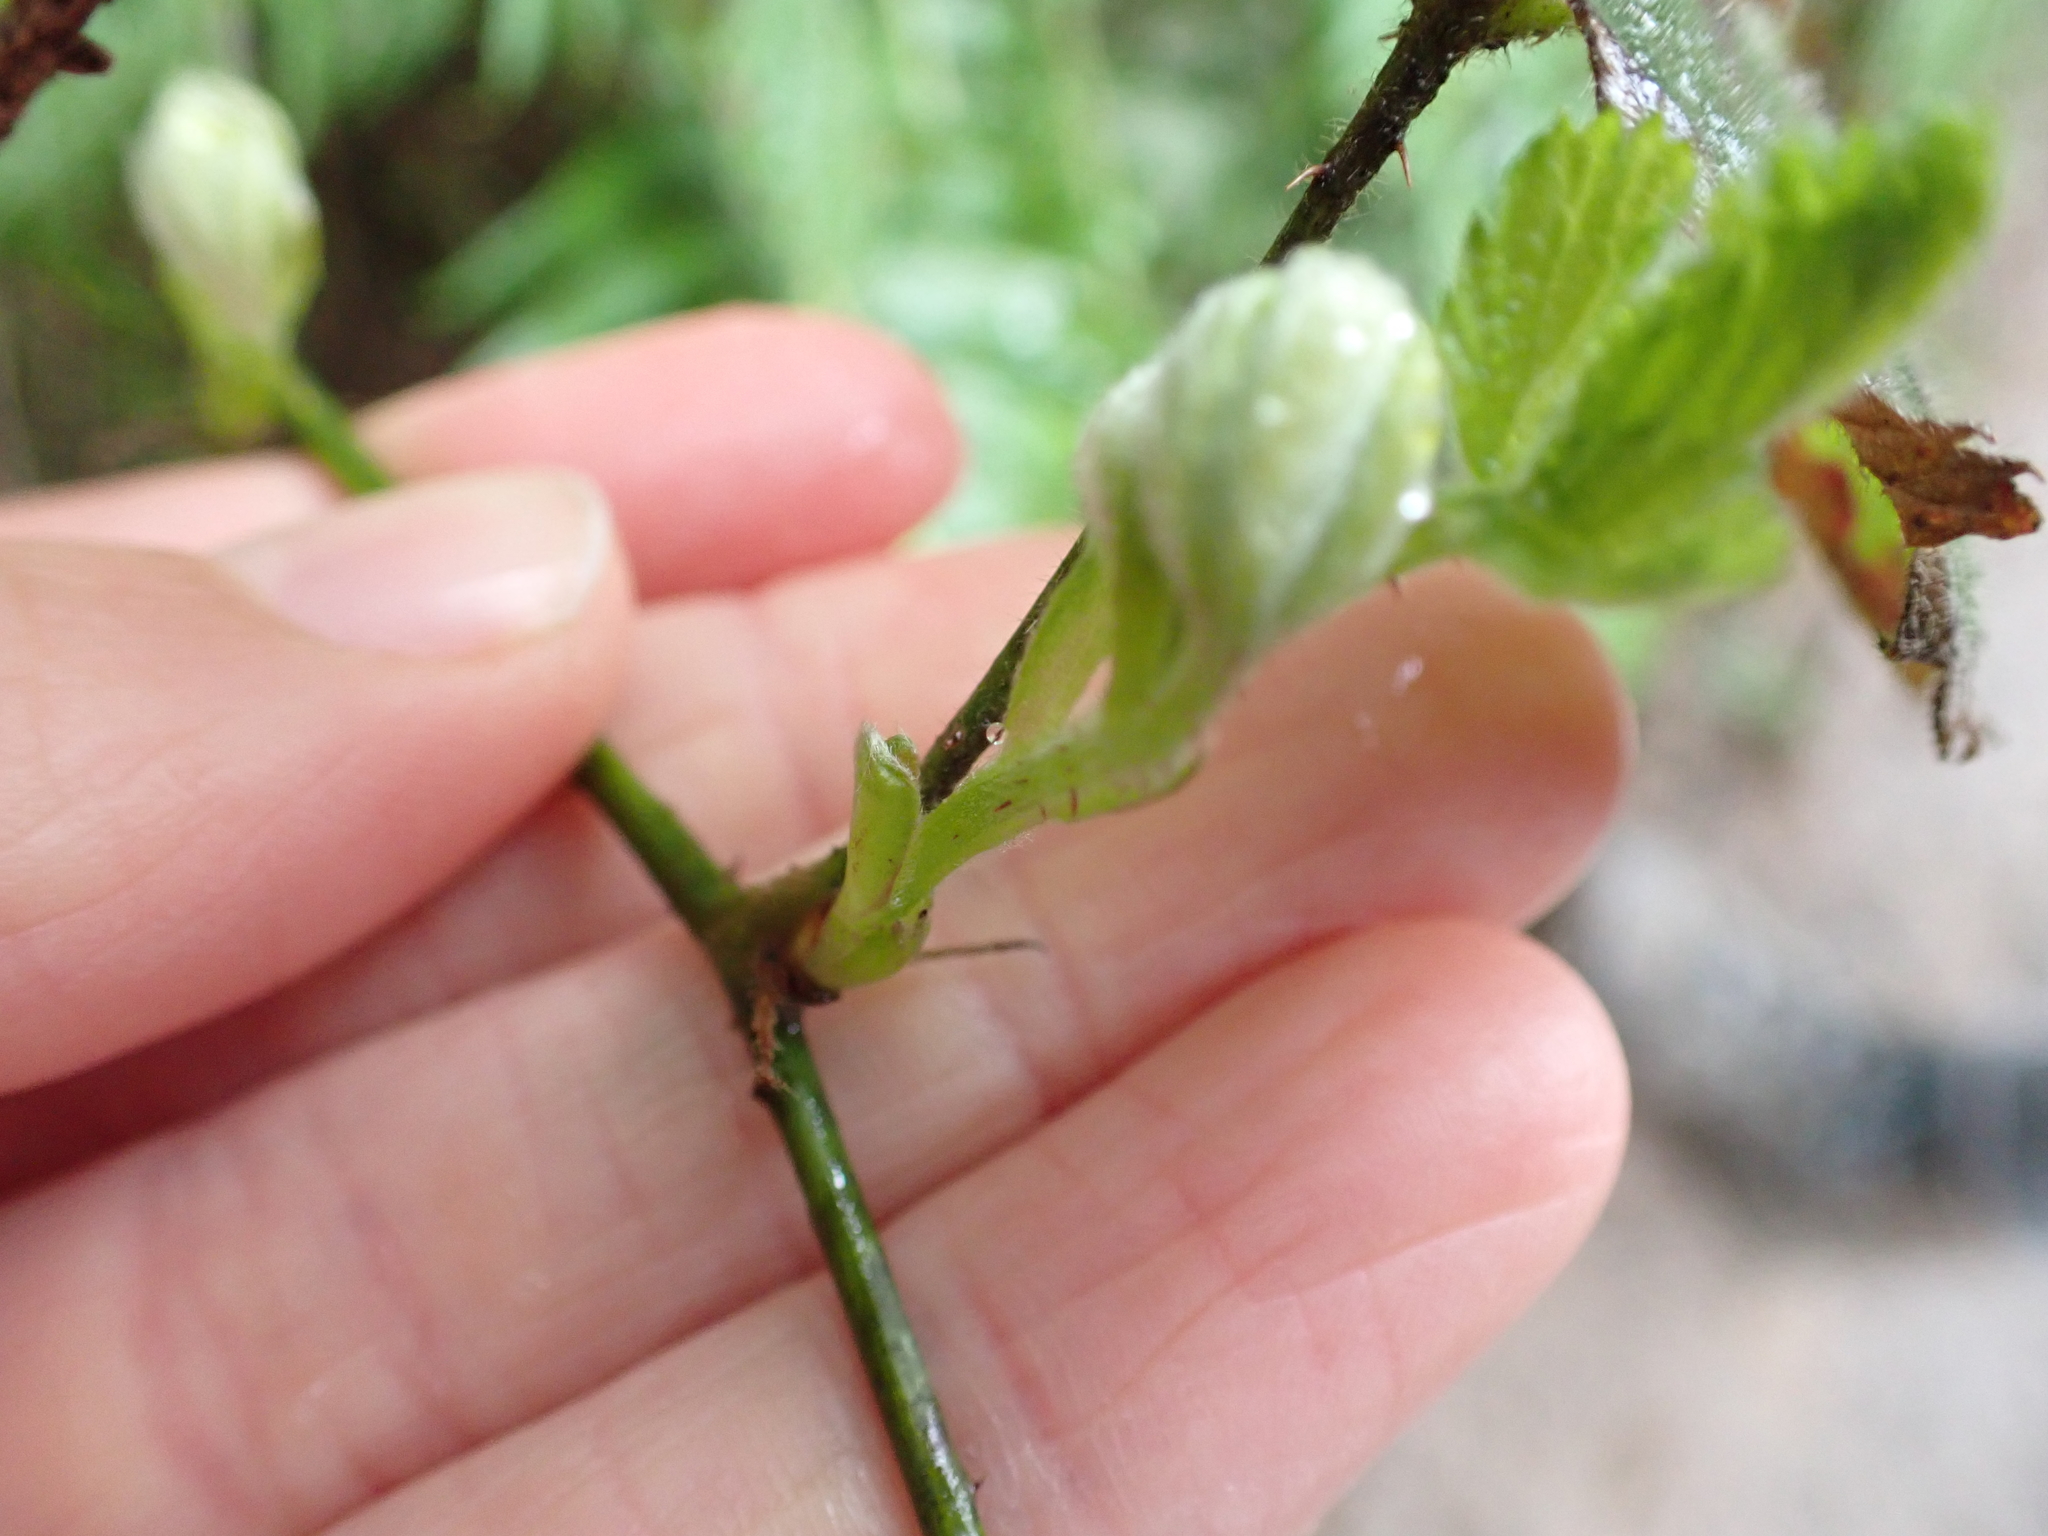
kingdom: Plantae
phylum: Tracheophyta
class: Magnoliopsida
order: Rosales
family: Rosaceae
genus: Rubus
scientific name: Rubus ursinus
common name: Pacific blackberry
